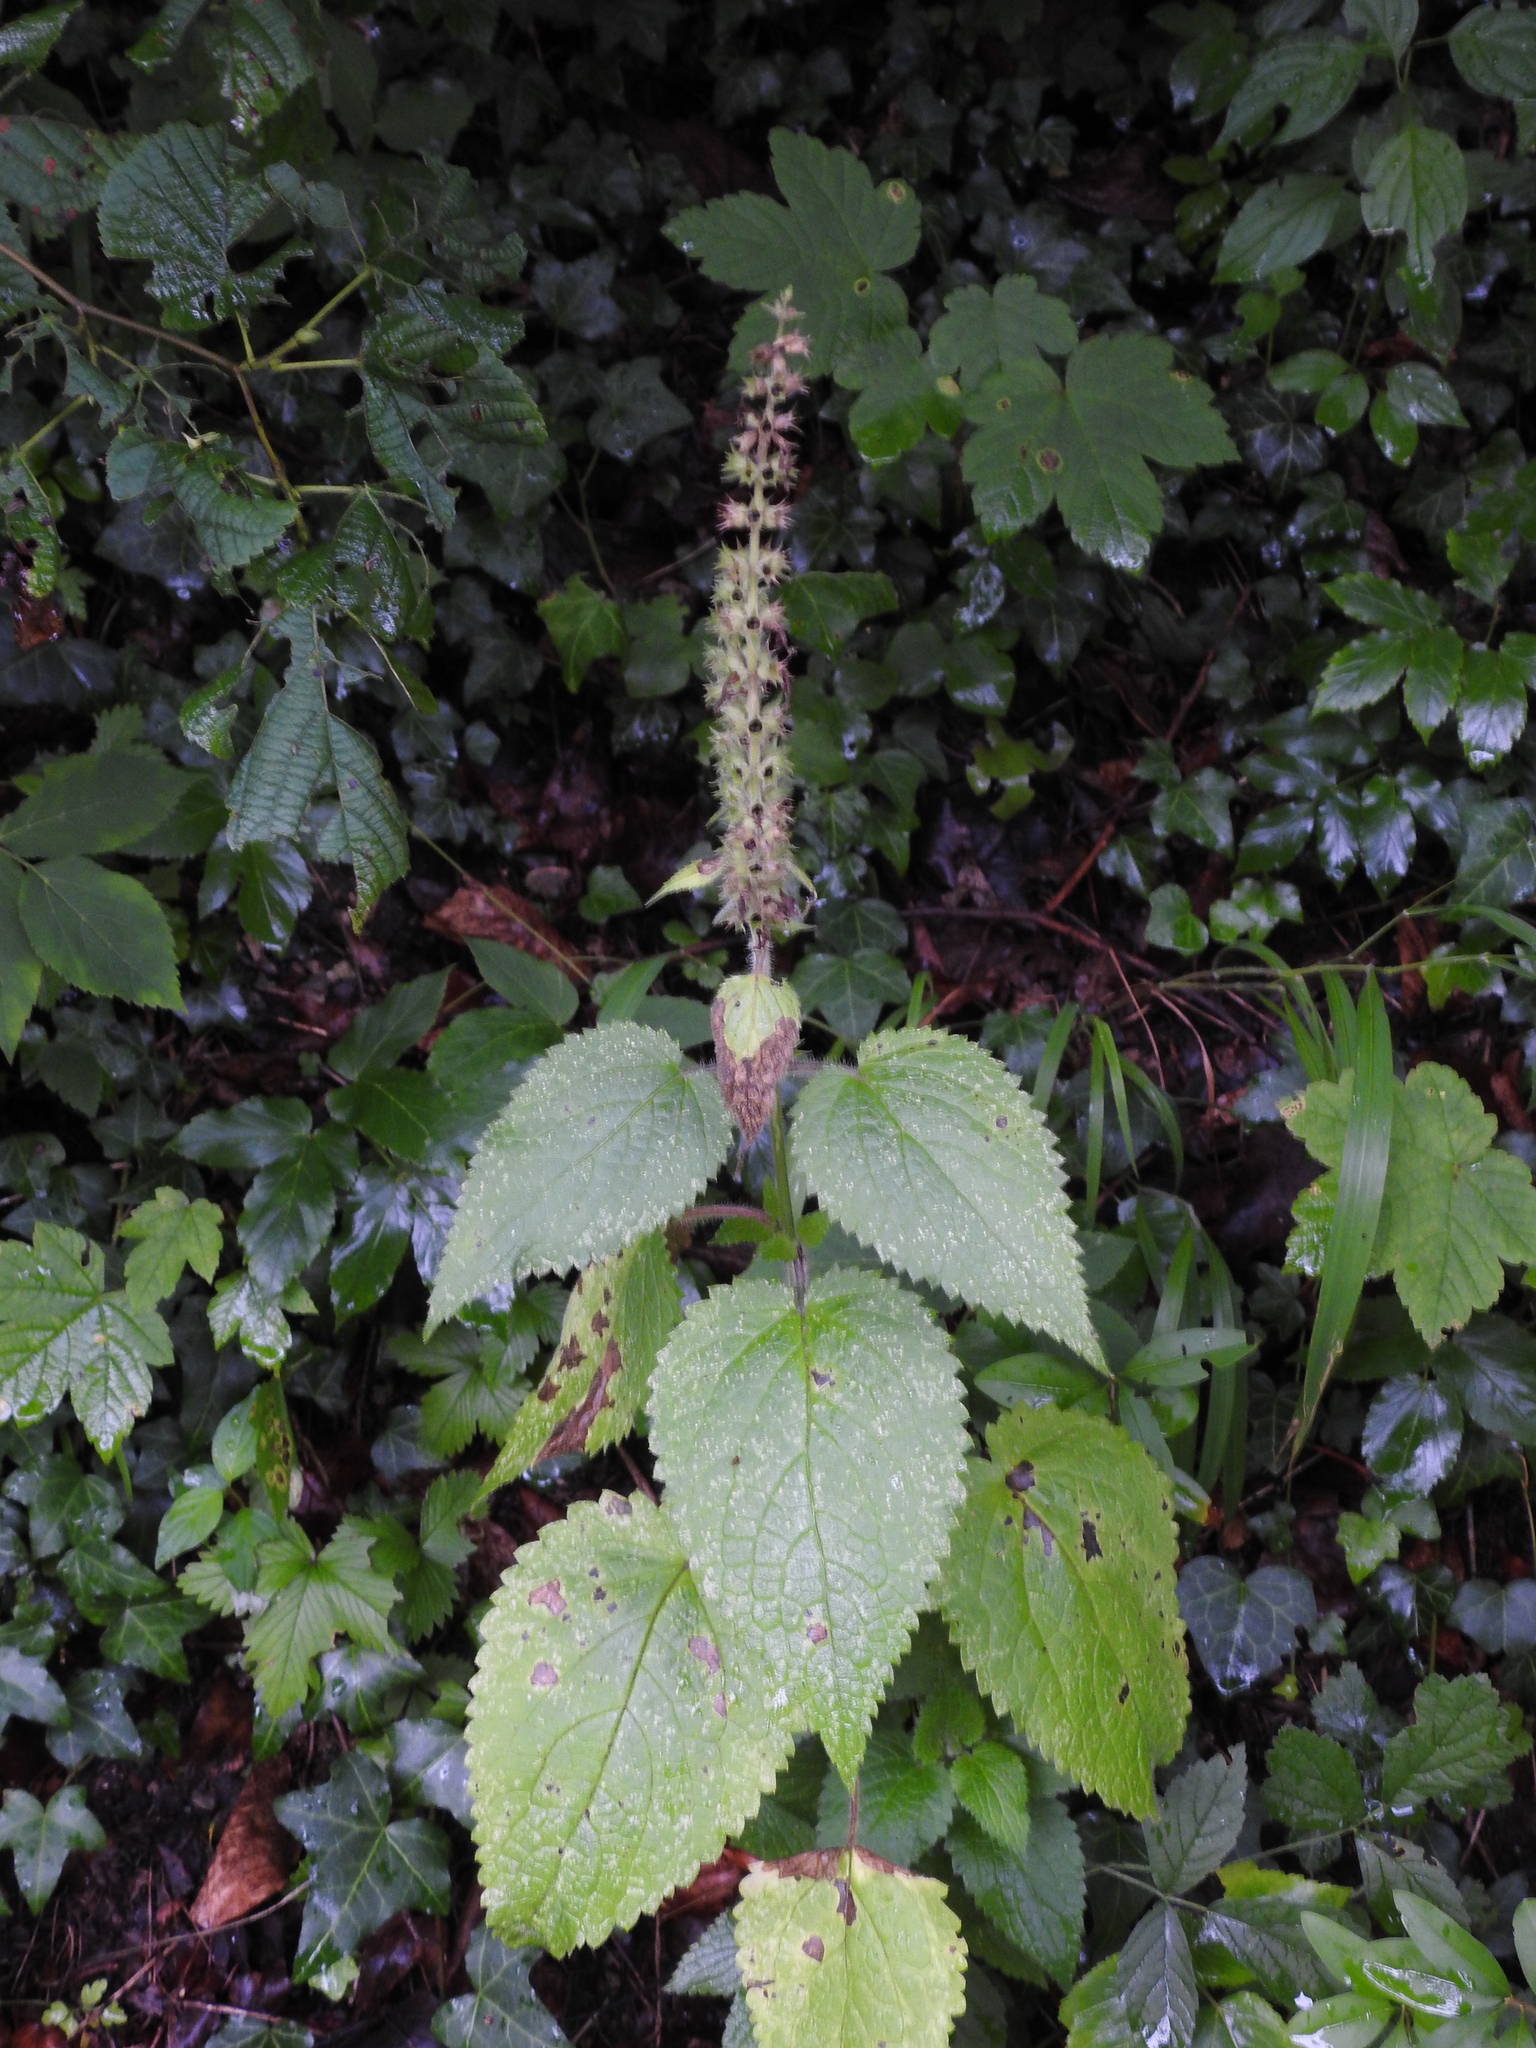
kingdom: Plantae
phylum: Tracheophyta
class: Magnoliopsida
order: Lamiales
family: Lamiaceae
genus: Stachys
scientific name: Stachys sylvatica
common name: Hedge woundwort
